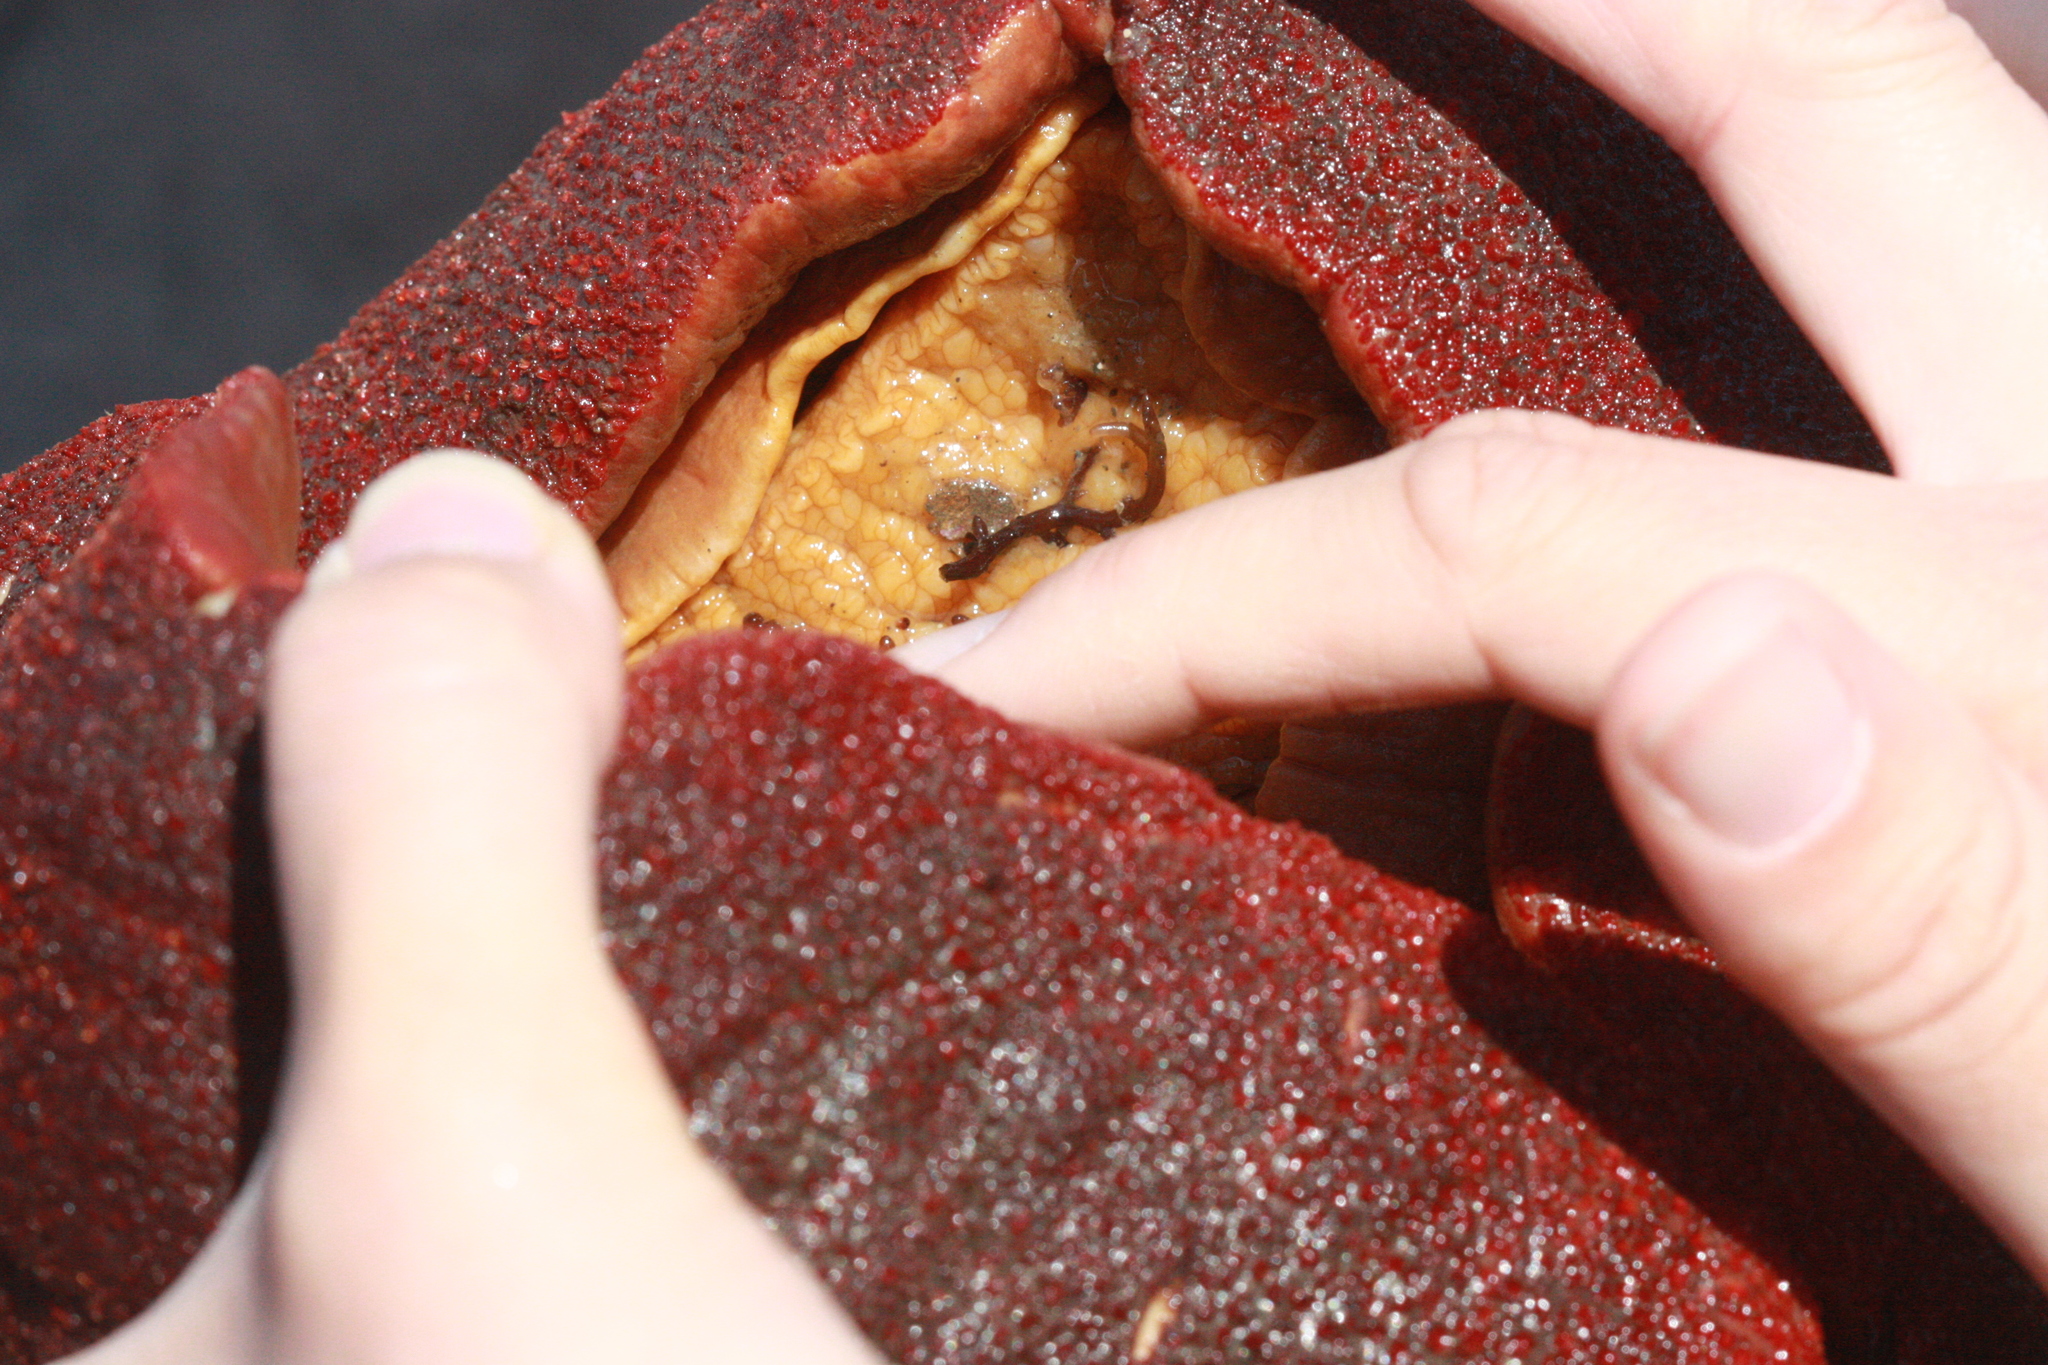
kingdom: Animalia
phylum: Mollusca
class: Polyplacophora
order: Chitonida
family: Acanthochitonidae
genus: Cryptochiton
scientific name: Cryptochiton stelleri
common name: Giant pacific chiton
